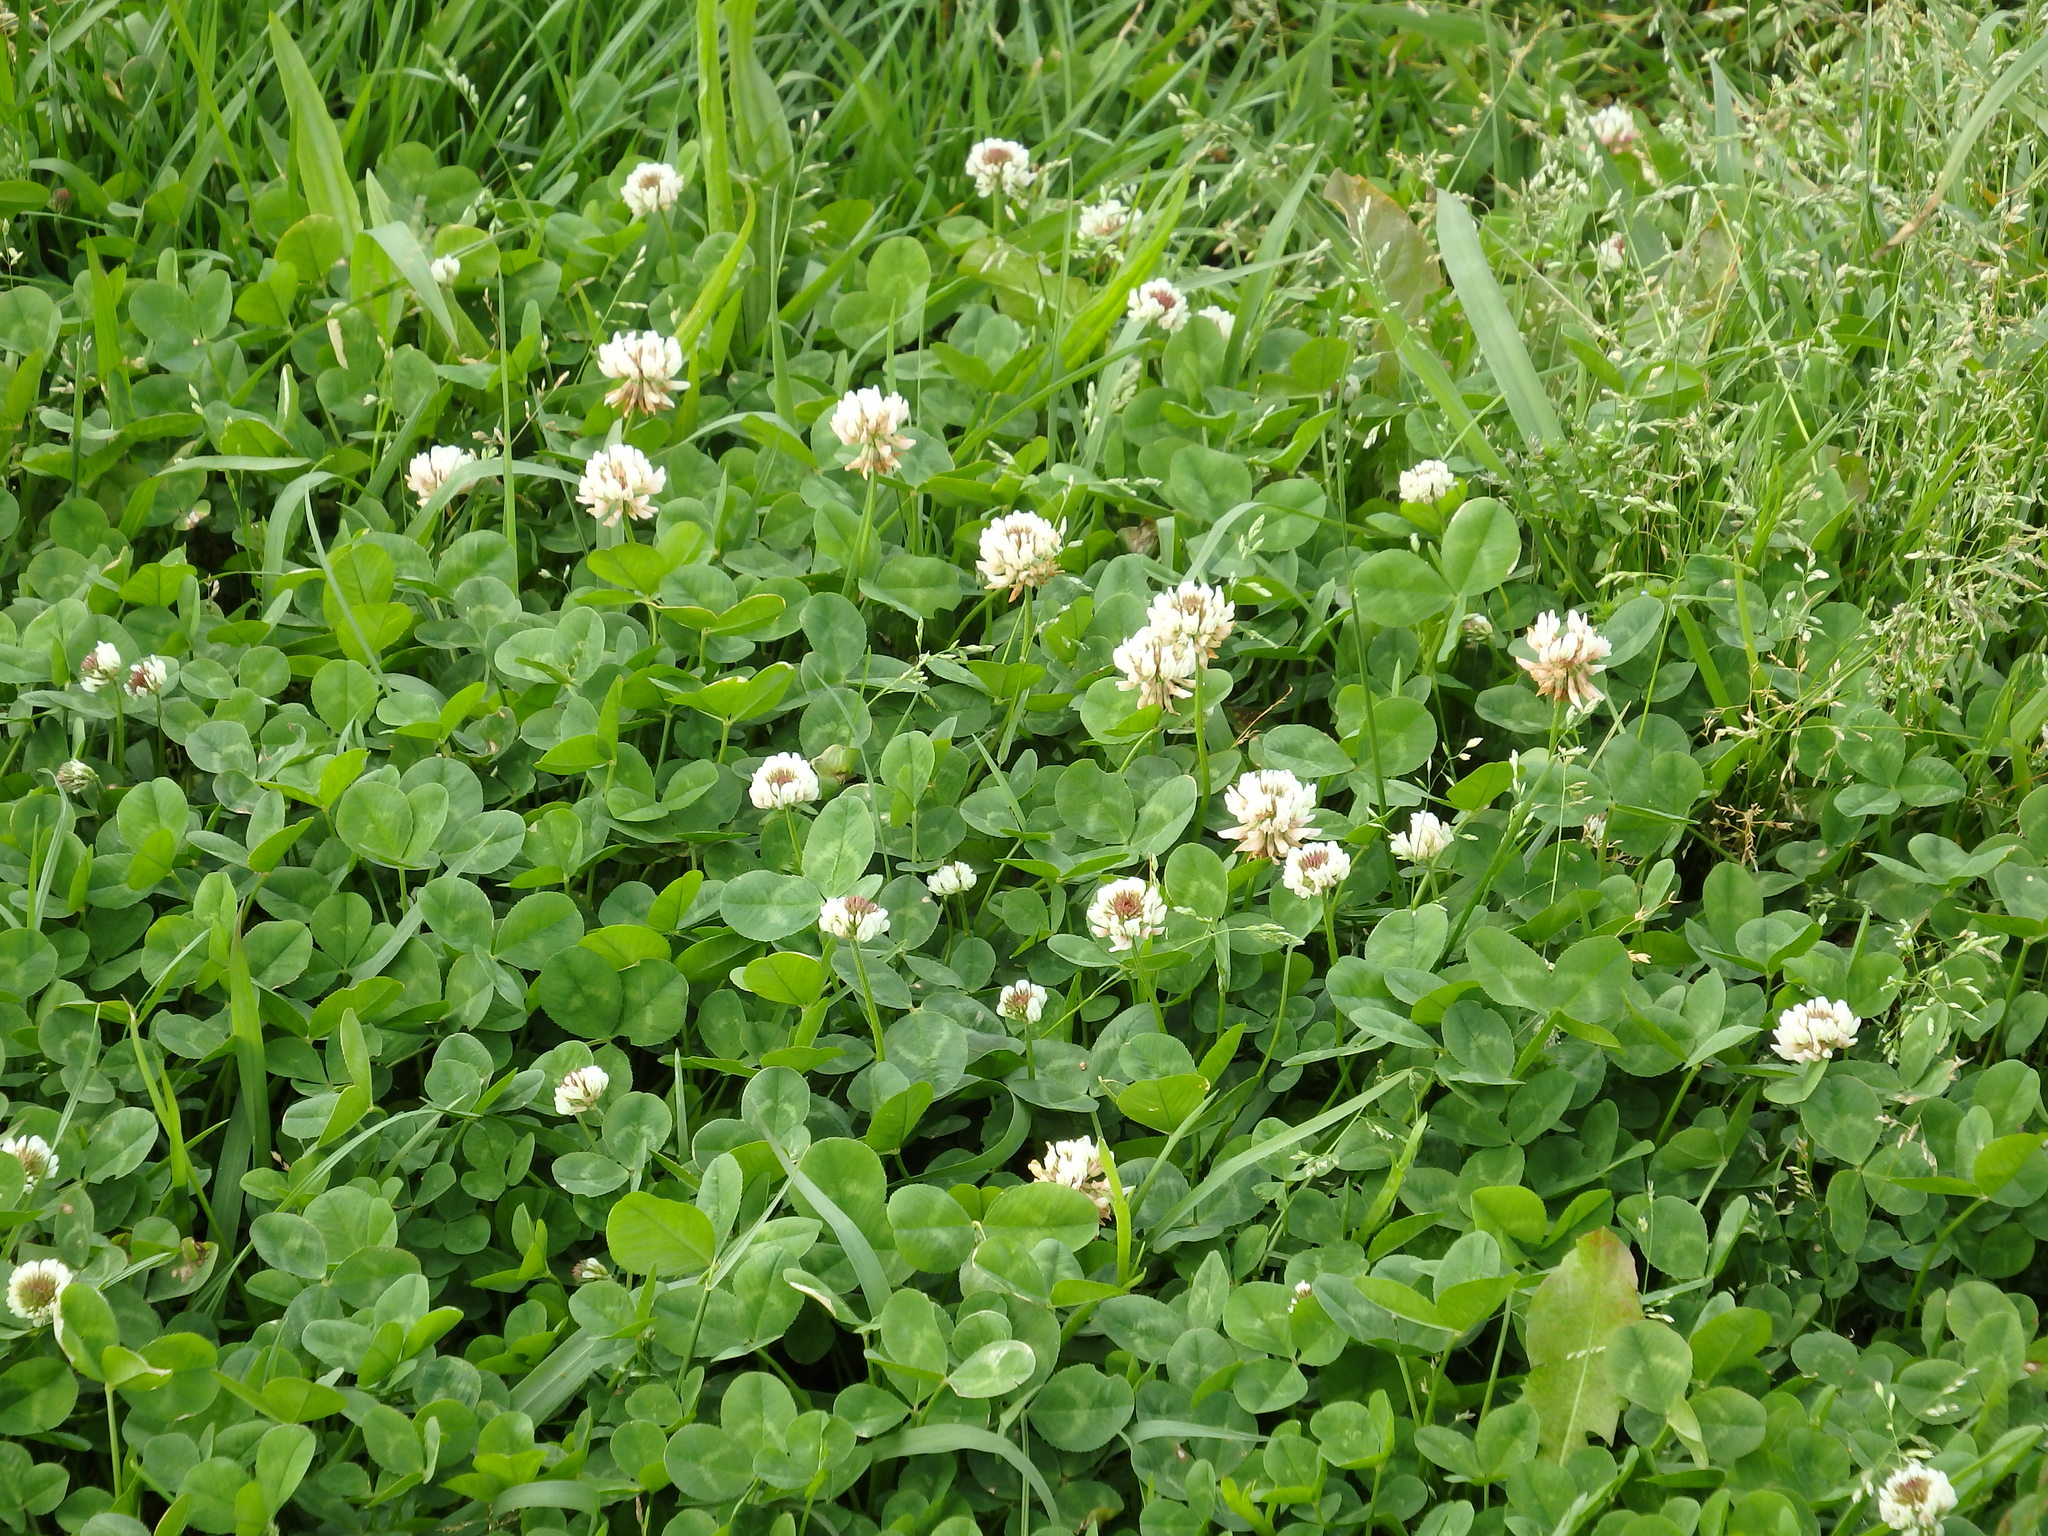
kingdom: Plantae
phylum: Tracheophyta
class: Magnoliopsida
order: Fabales
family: Fabaceae
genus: Trifolium
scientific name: Trifolium repens
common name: White clover
